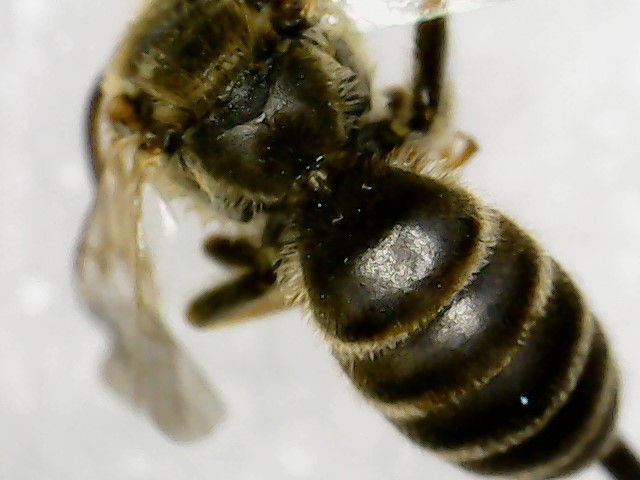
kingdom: Animalia
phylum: Arthropoda
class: Insecta
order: Hymenoptera
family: Halictidae
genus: Halictus
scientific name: Halictus ligatus
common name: Ligated furrow bee
